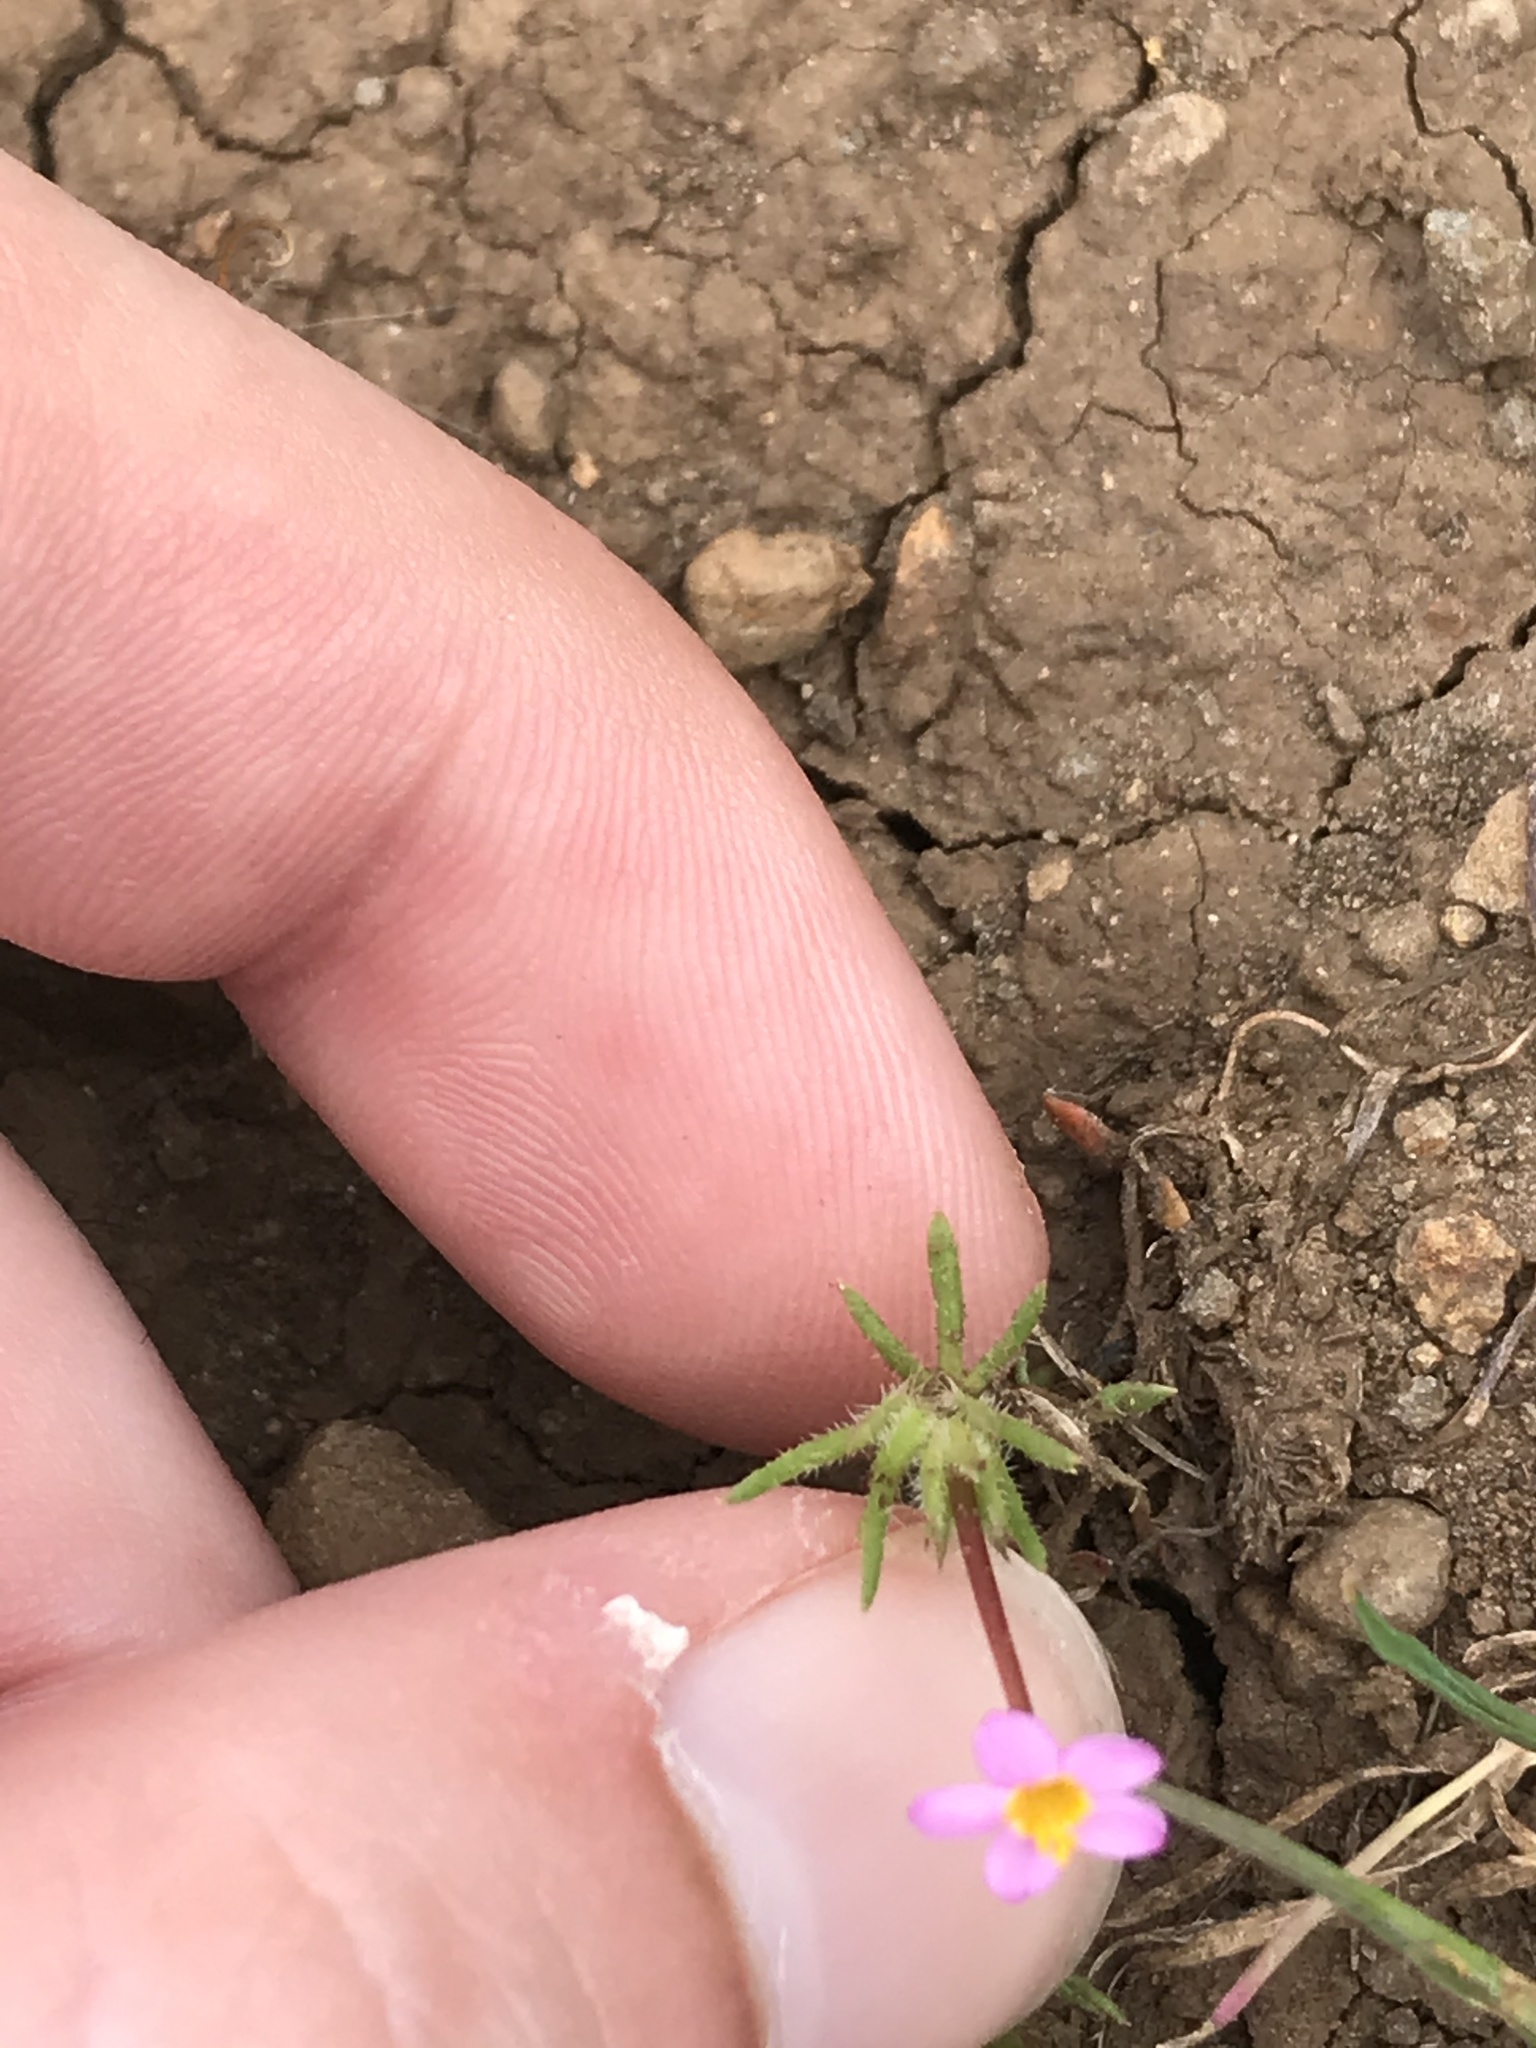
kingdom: Plantae
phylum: Tracheophyta
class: Magnoliopsida
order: Ericales
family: Polemoniaceae
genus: Leptosiphon
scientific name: Leptosiphon bicolor
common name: True babystars
